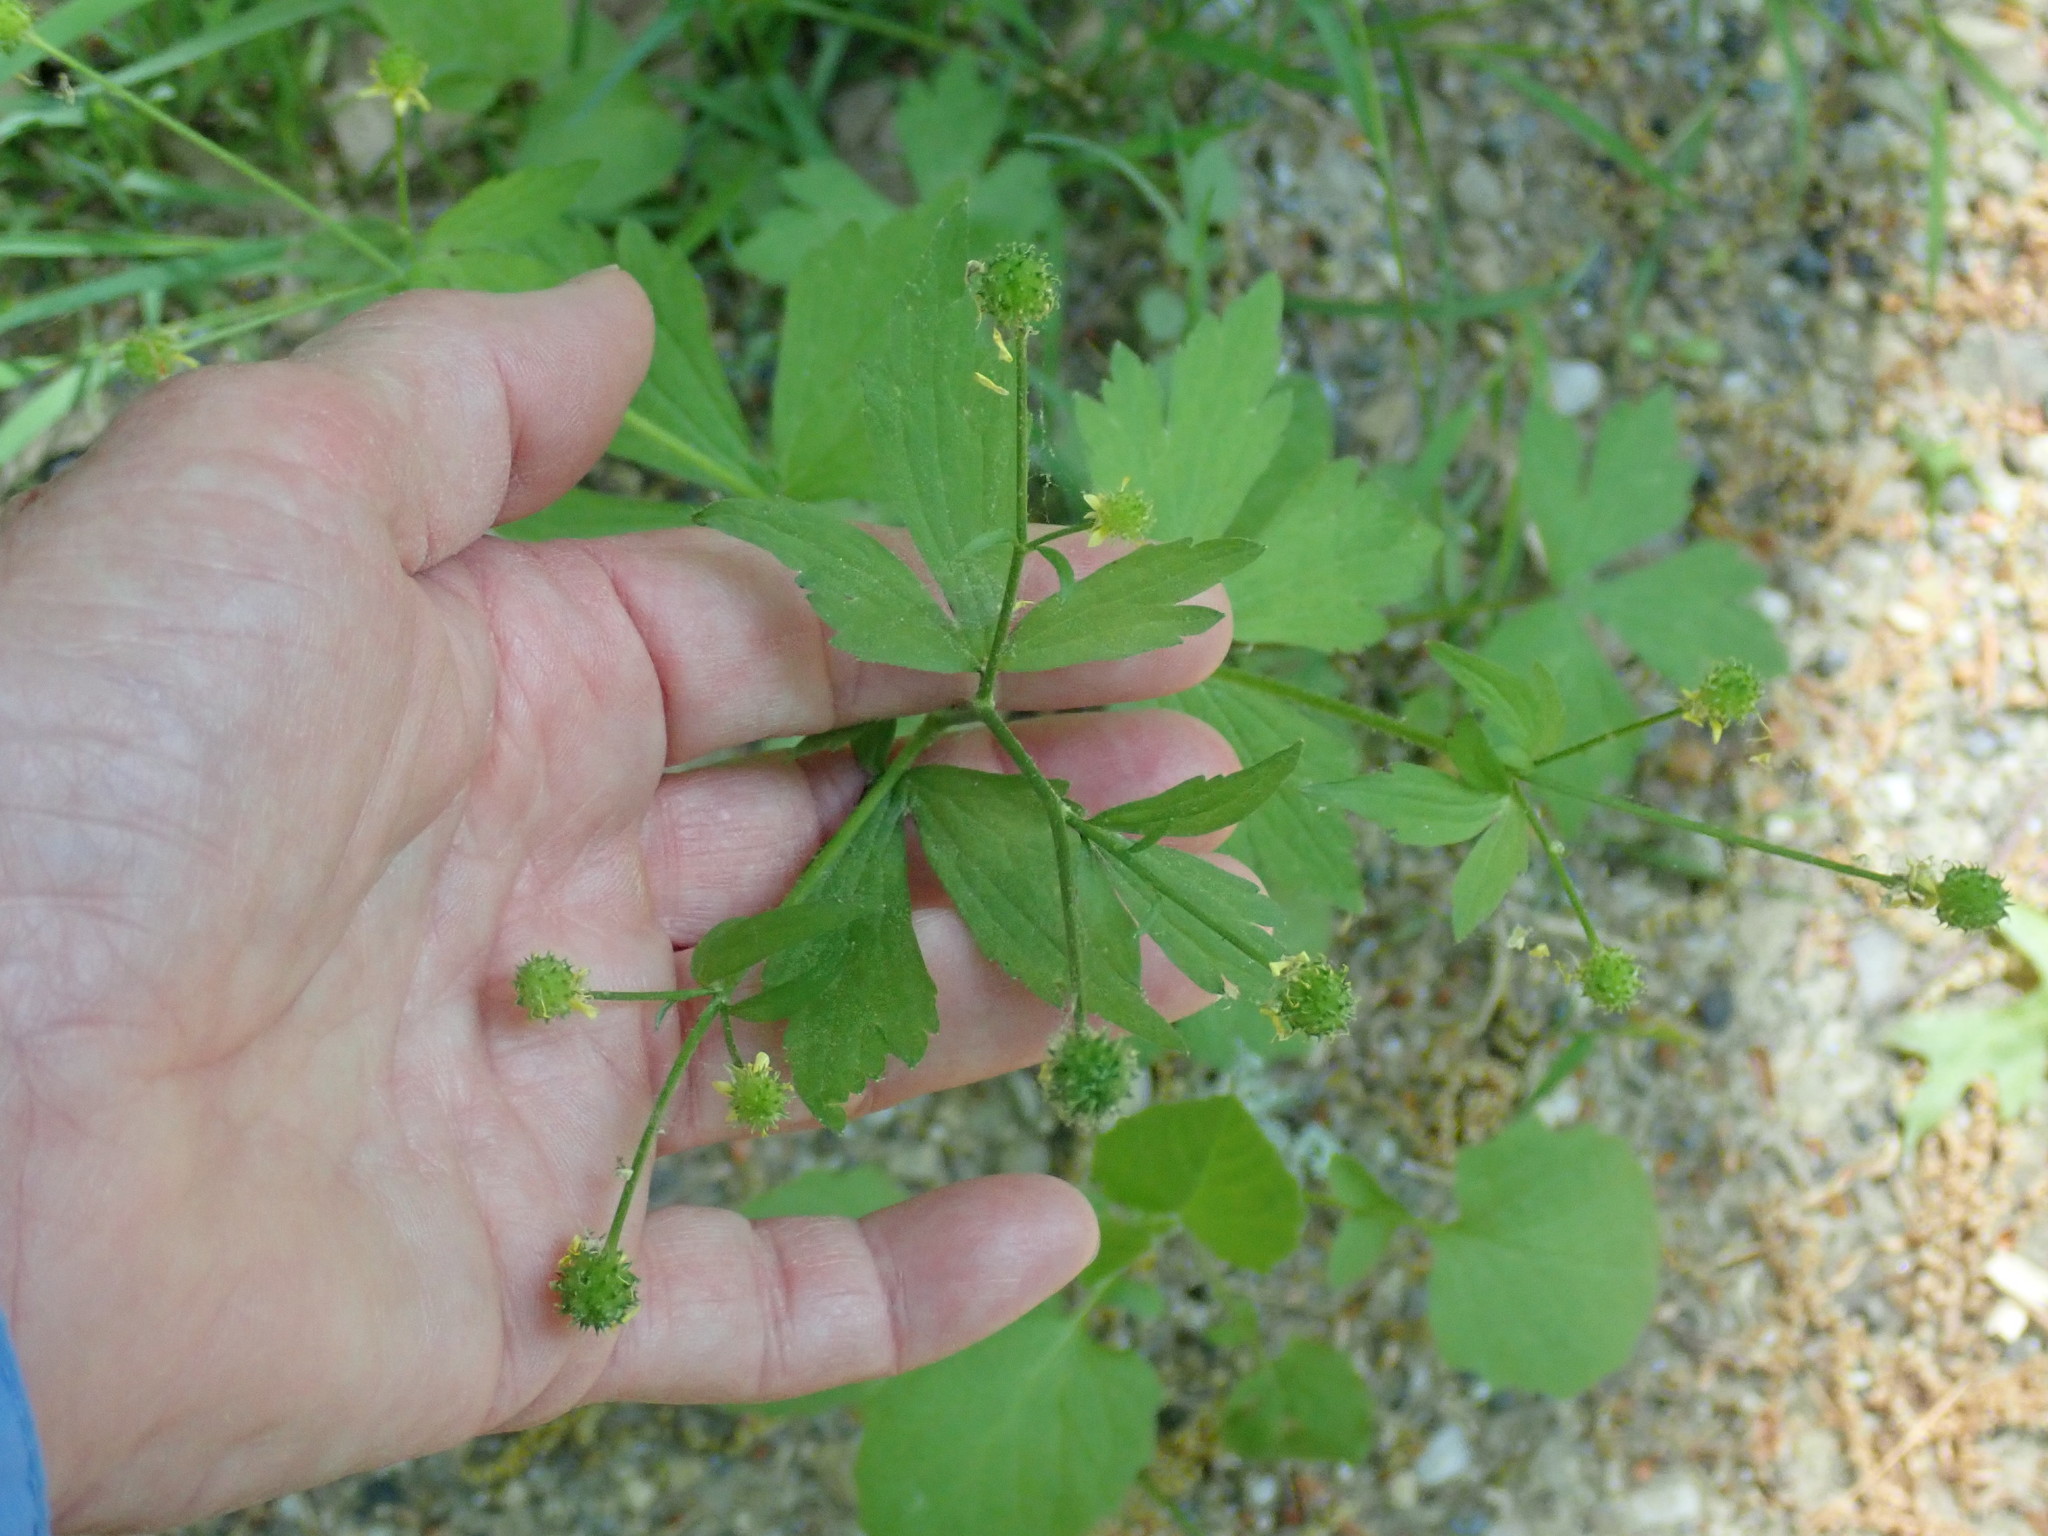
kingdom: Plantae
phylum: Tracheophyta
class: Magnoliopsida
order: Ranunculales
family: Ranunculaceae
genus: Ranunculus
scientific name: Ranunculus recurvatus
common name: Blisterwort
